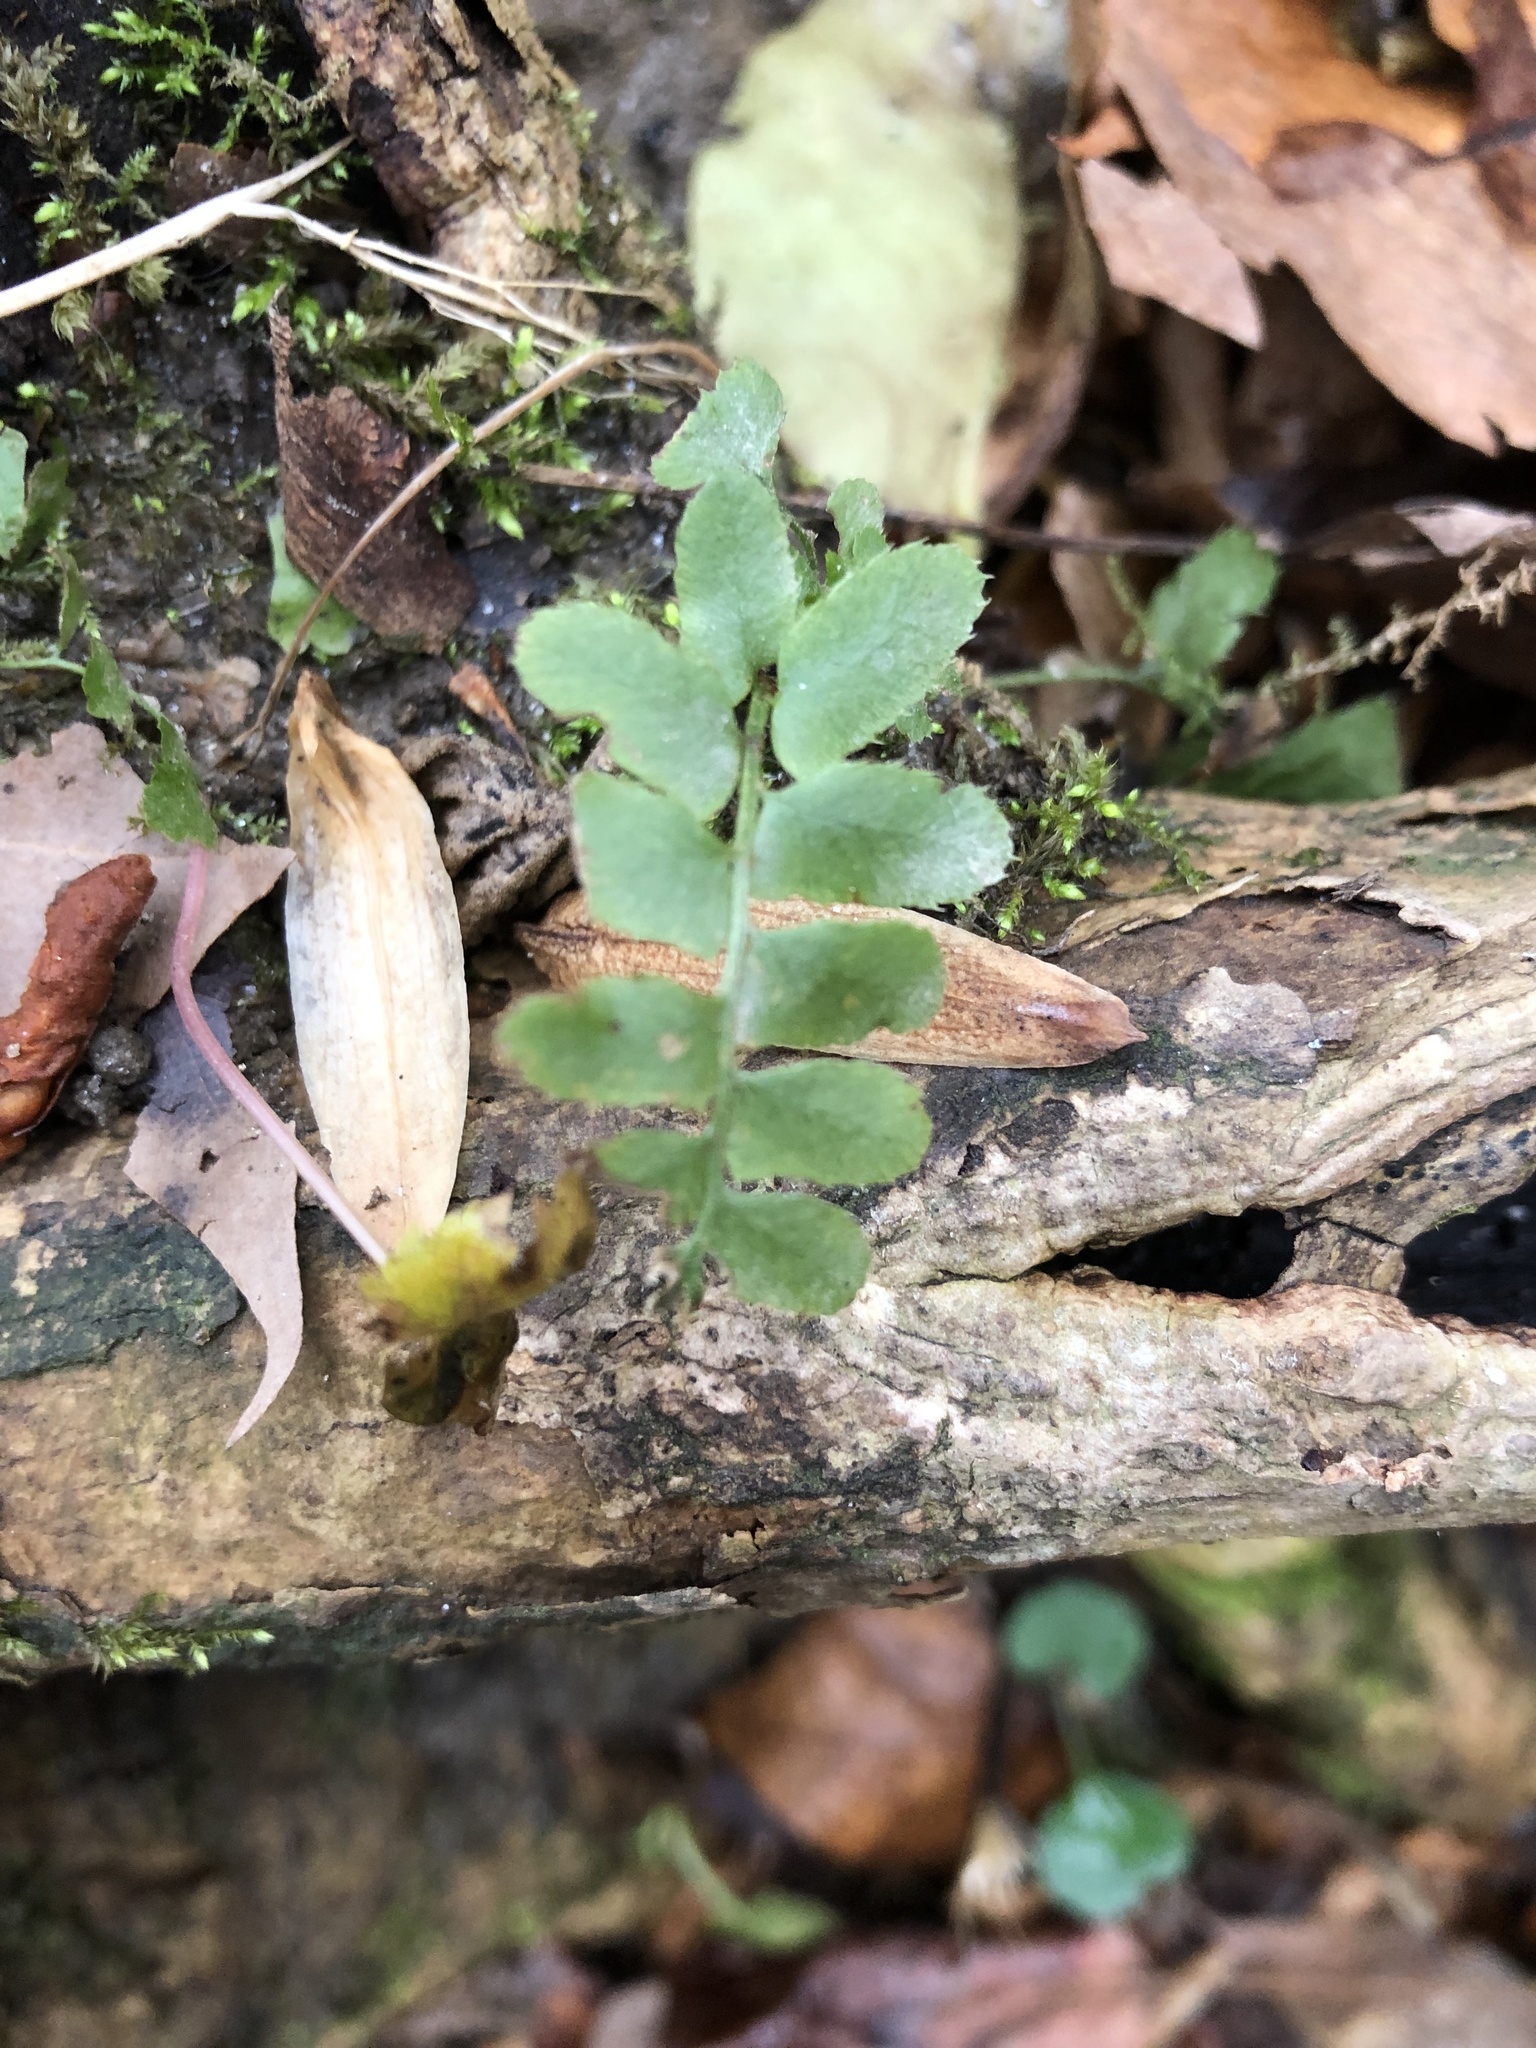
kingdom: Plantae
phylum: Tracheophyta
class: Polypodiopsida
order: Polypodiales
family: Dryopteridaceae
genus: Polystichum
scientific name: Polystichum acrostichoides
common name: Christmas fern
